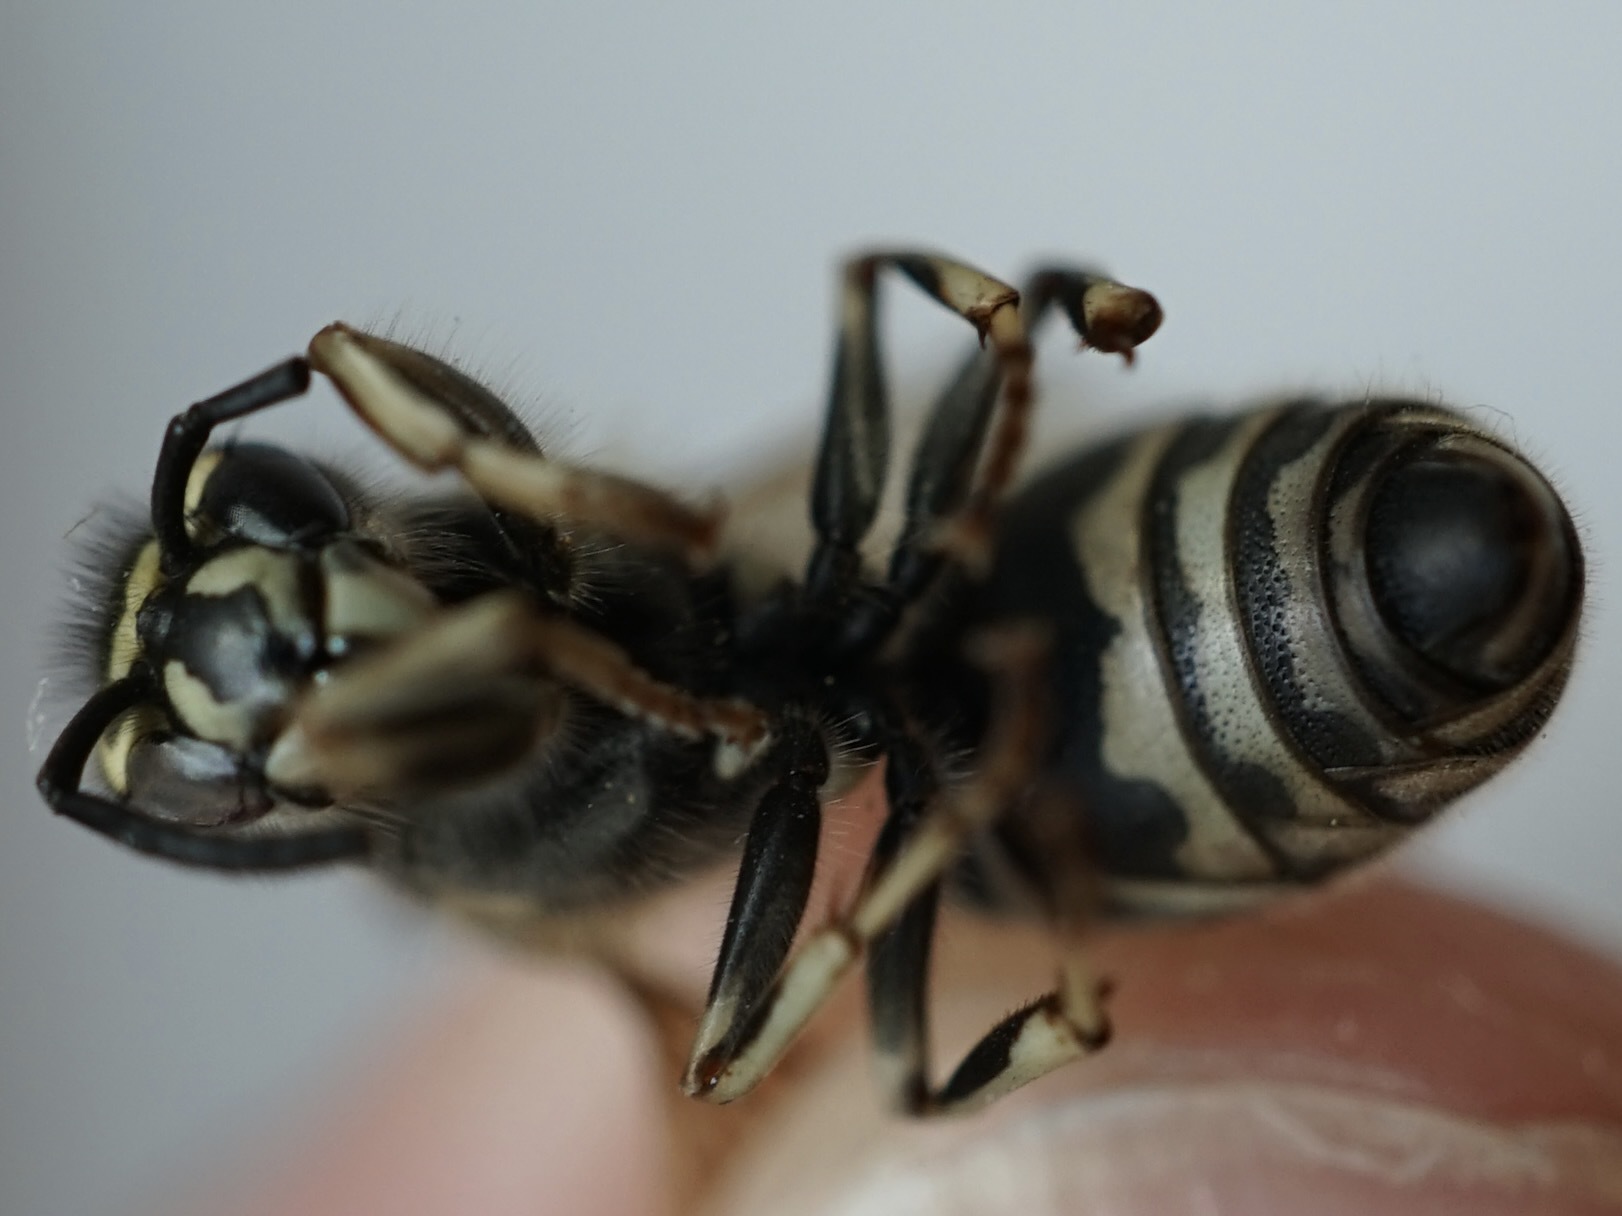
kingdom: Animalia
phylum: Arthropoda
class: Insecta
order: Hymenoptera
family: Vespidae
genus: Vespula
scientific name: Vespula shidai
